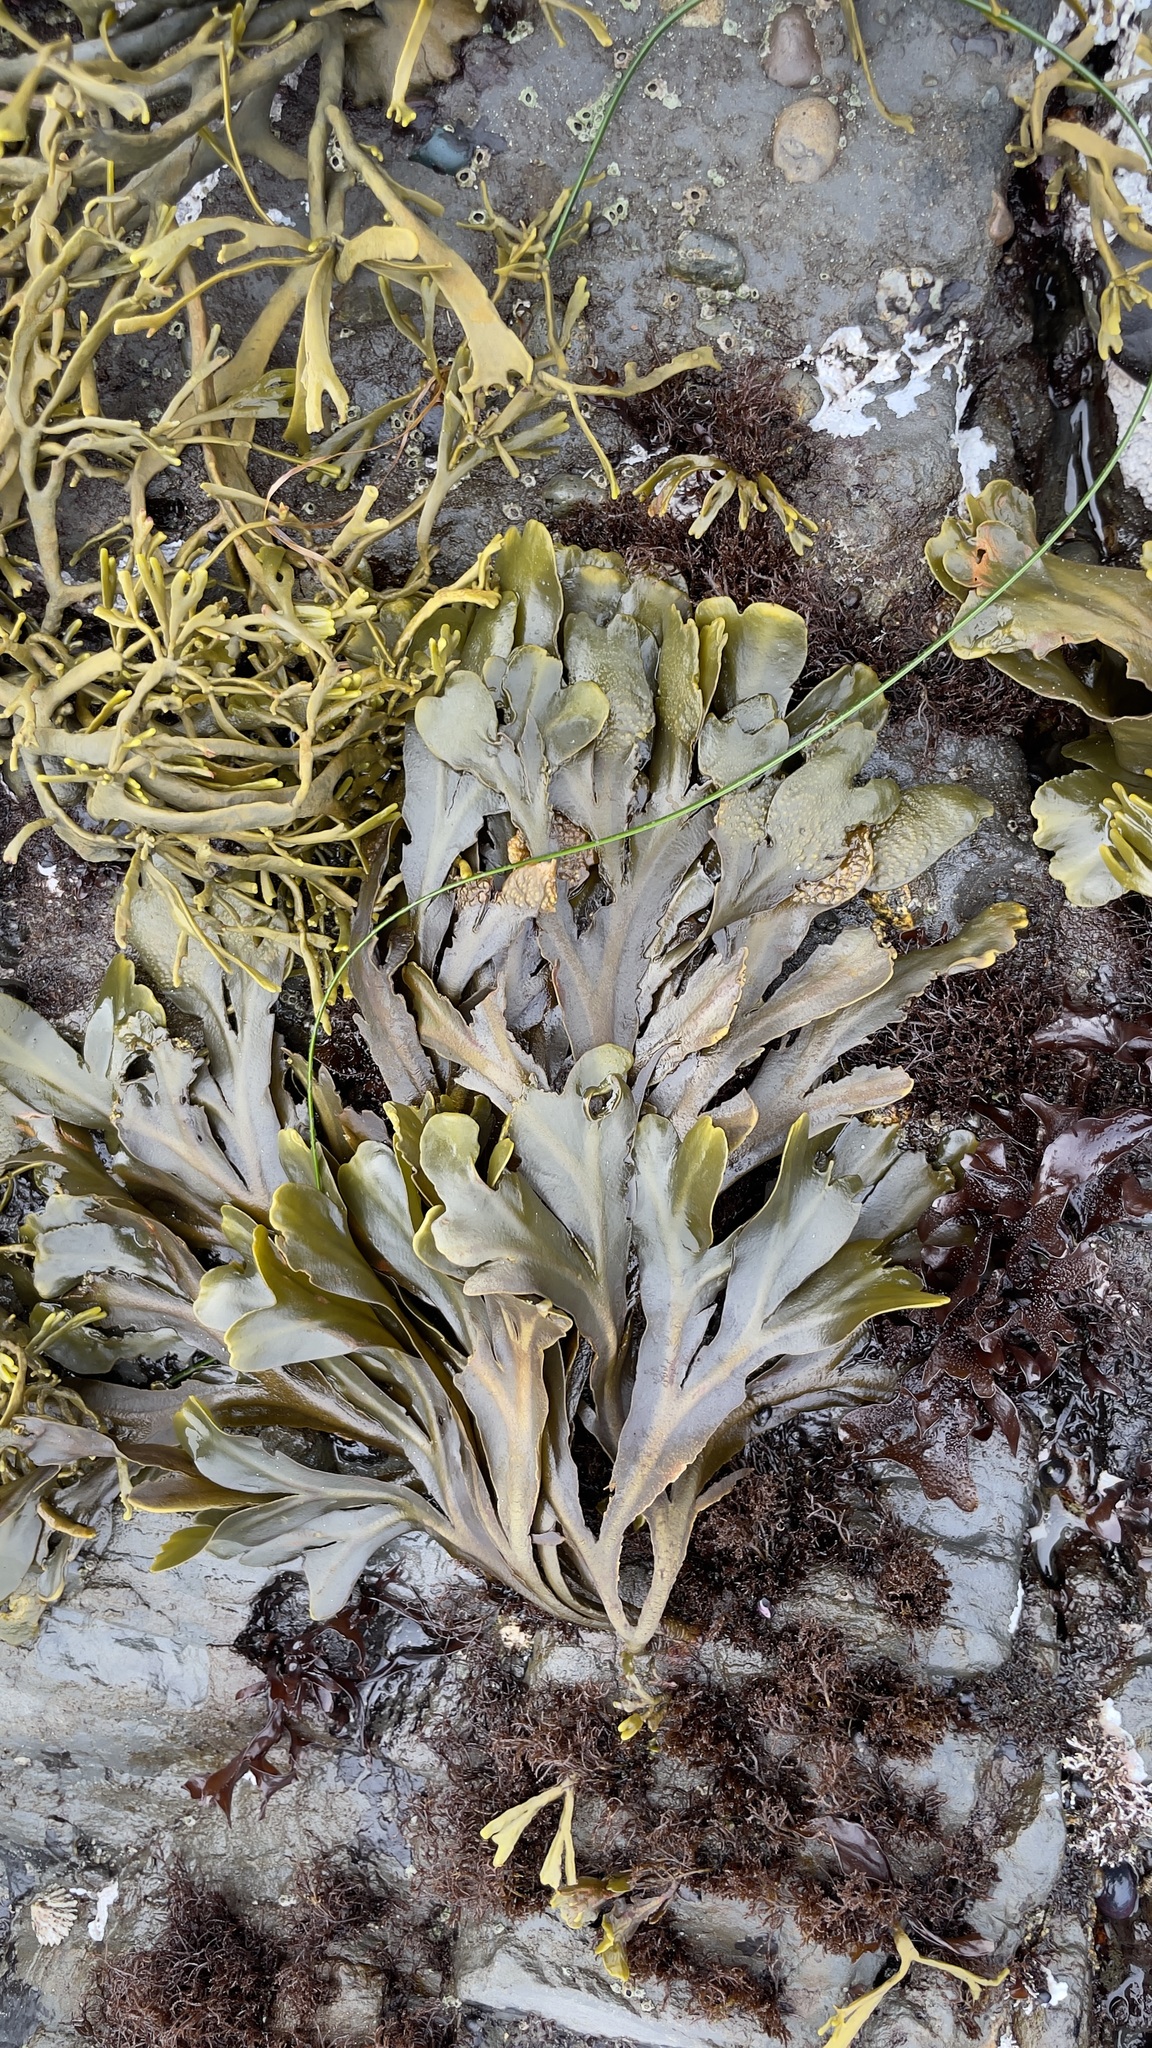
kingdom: Chromista
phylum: Ochrophyta
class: Phaeophyceae
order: Fucales
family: Fucaceae
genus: Fucus
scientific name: Fucus distichus
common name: Rockweed
